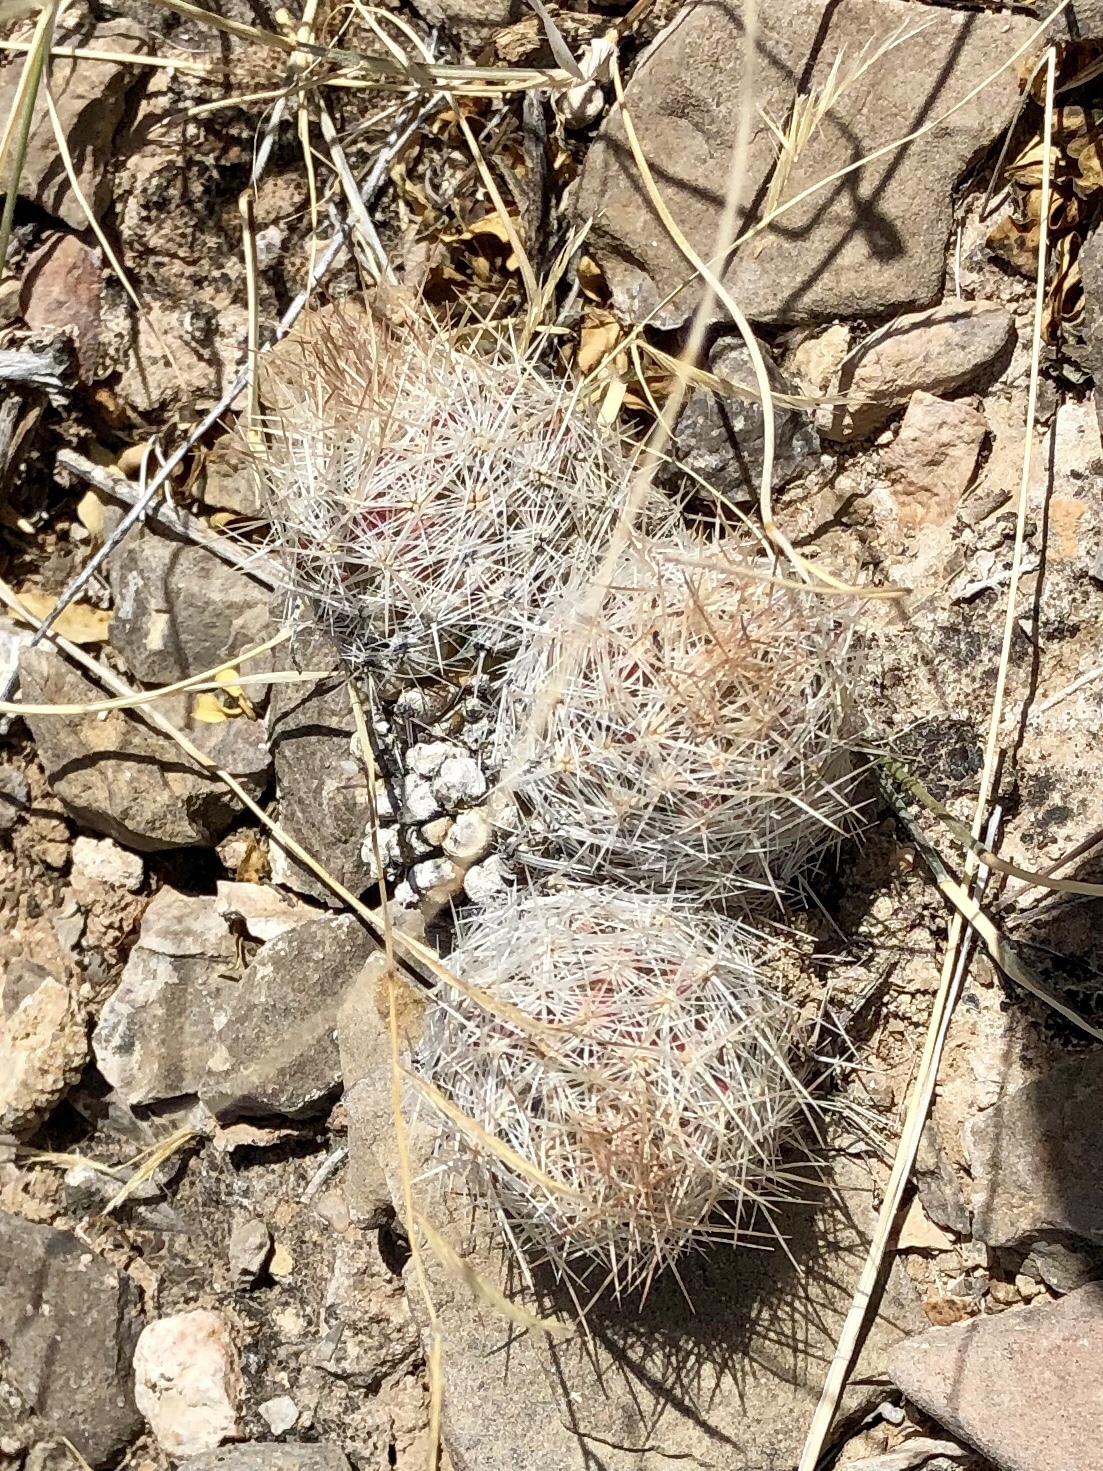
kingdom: Plantae
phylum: Tracheophyta
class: Magnoliopsida
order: Caryophyllales
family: Cactaceae
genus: Pelecyphora
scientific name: Pelecyphora tuberculosa
